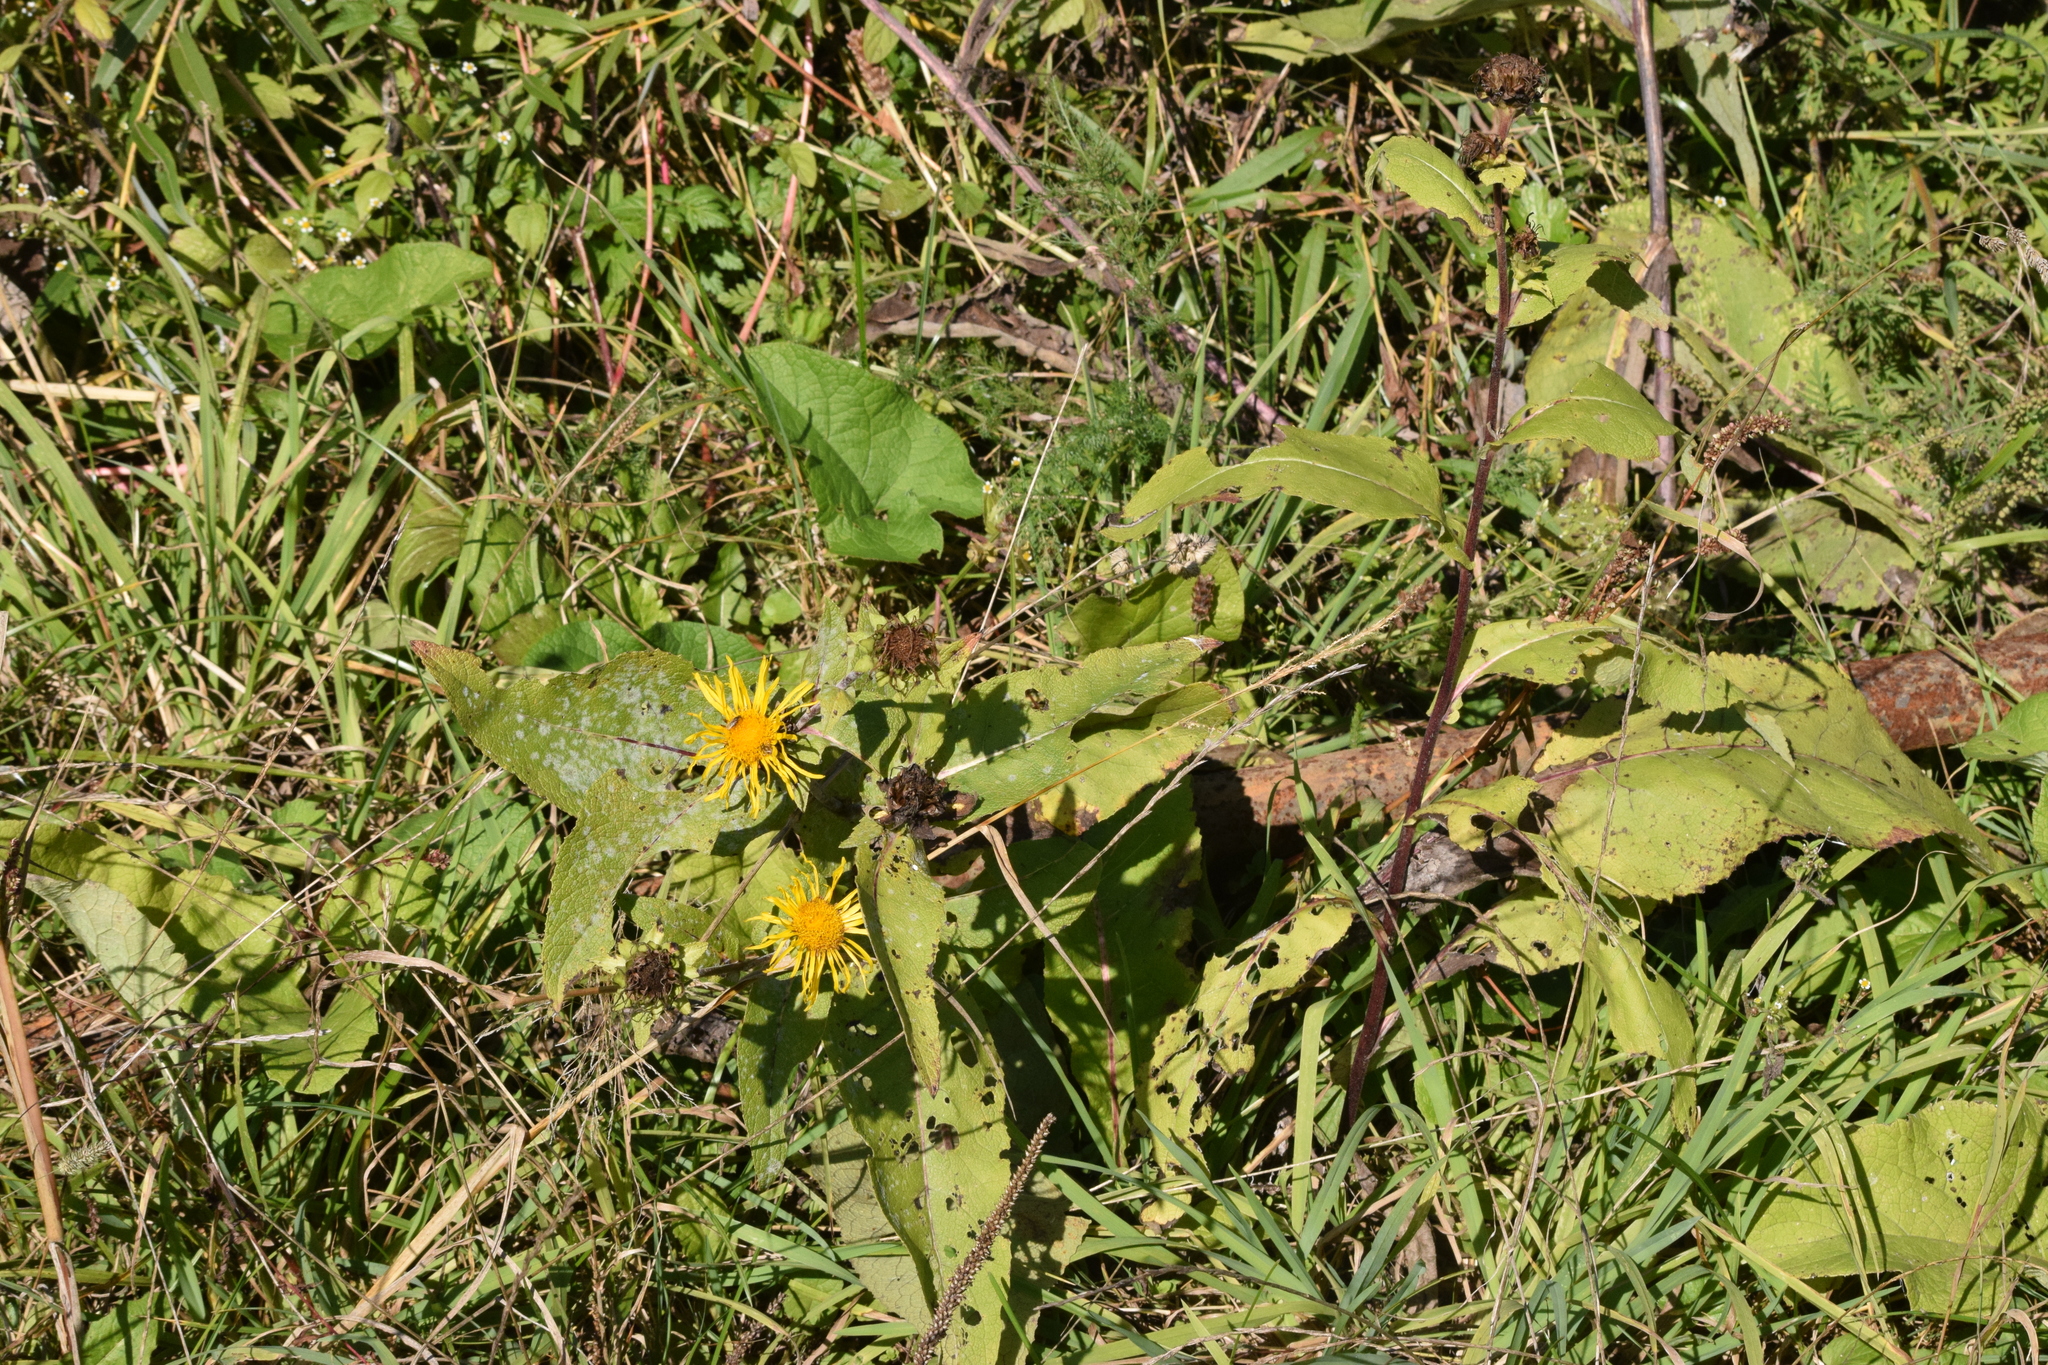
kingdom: Plantae
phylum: Tracheophyta
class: Magnoliopsida
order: Asterales
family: Asteraceae
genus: Inula
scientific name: Inula helenium
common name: Elecampane
